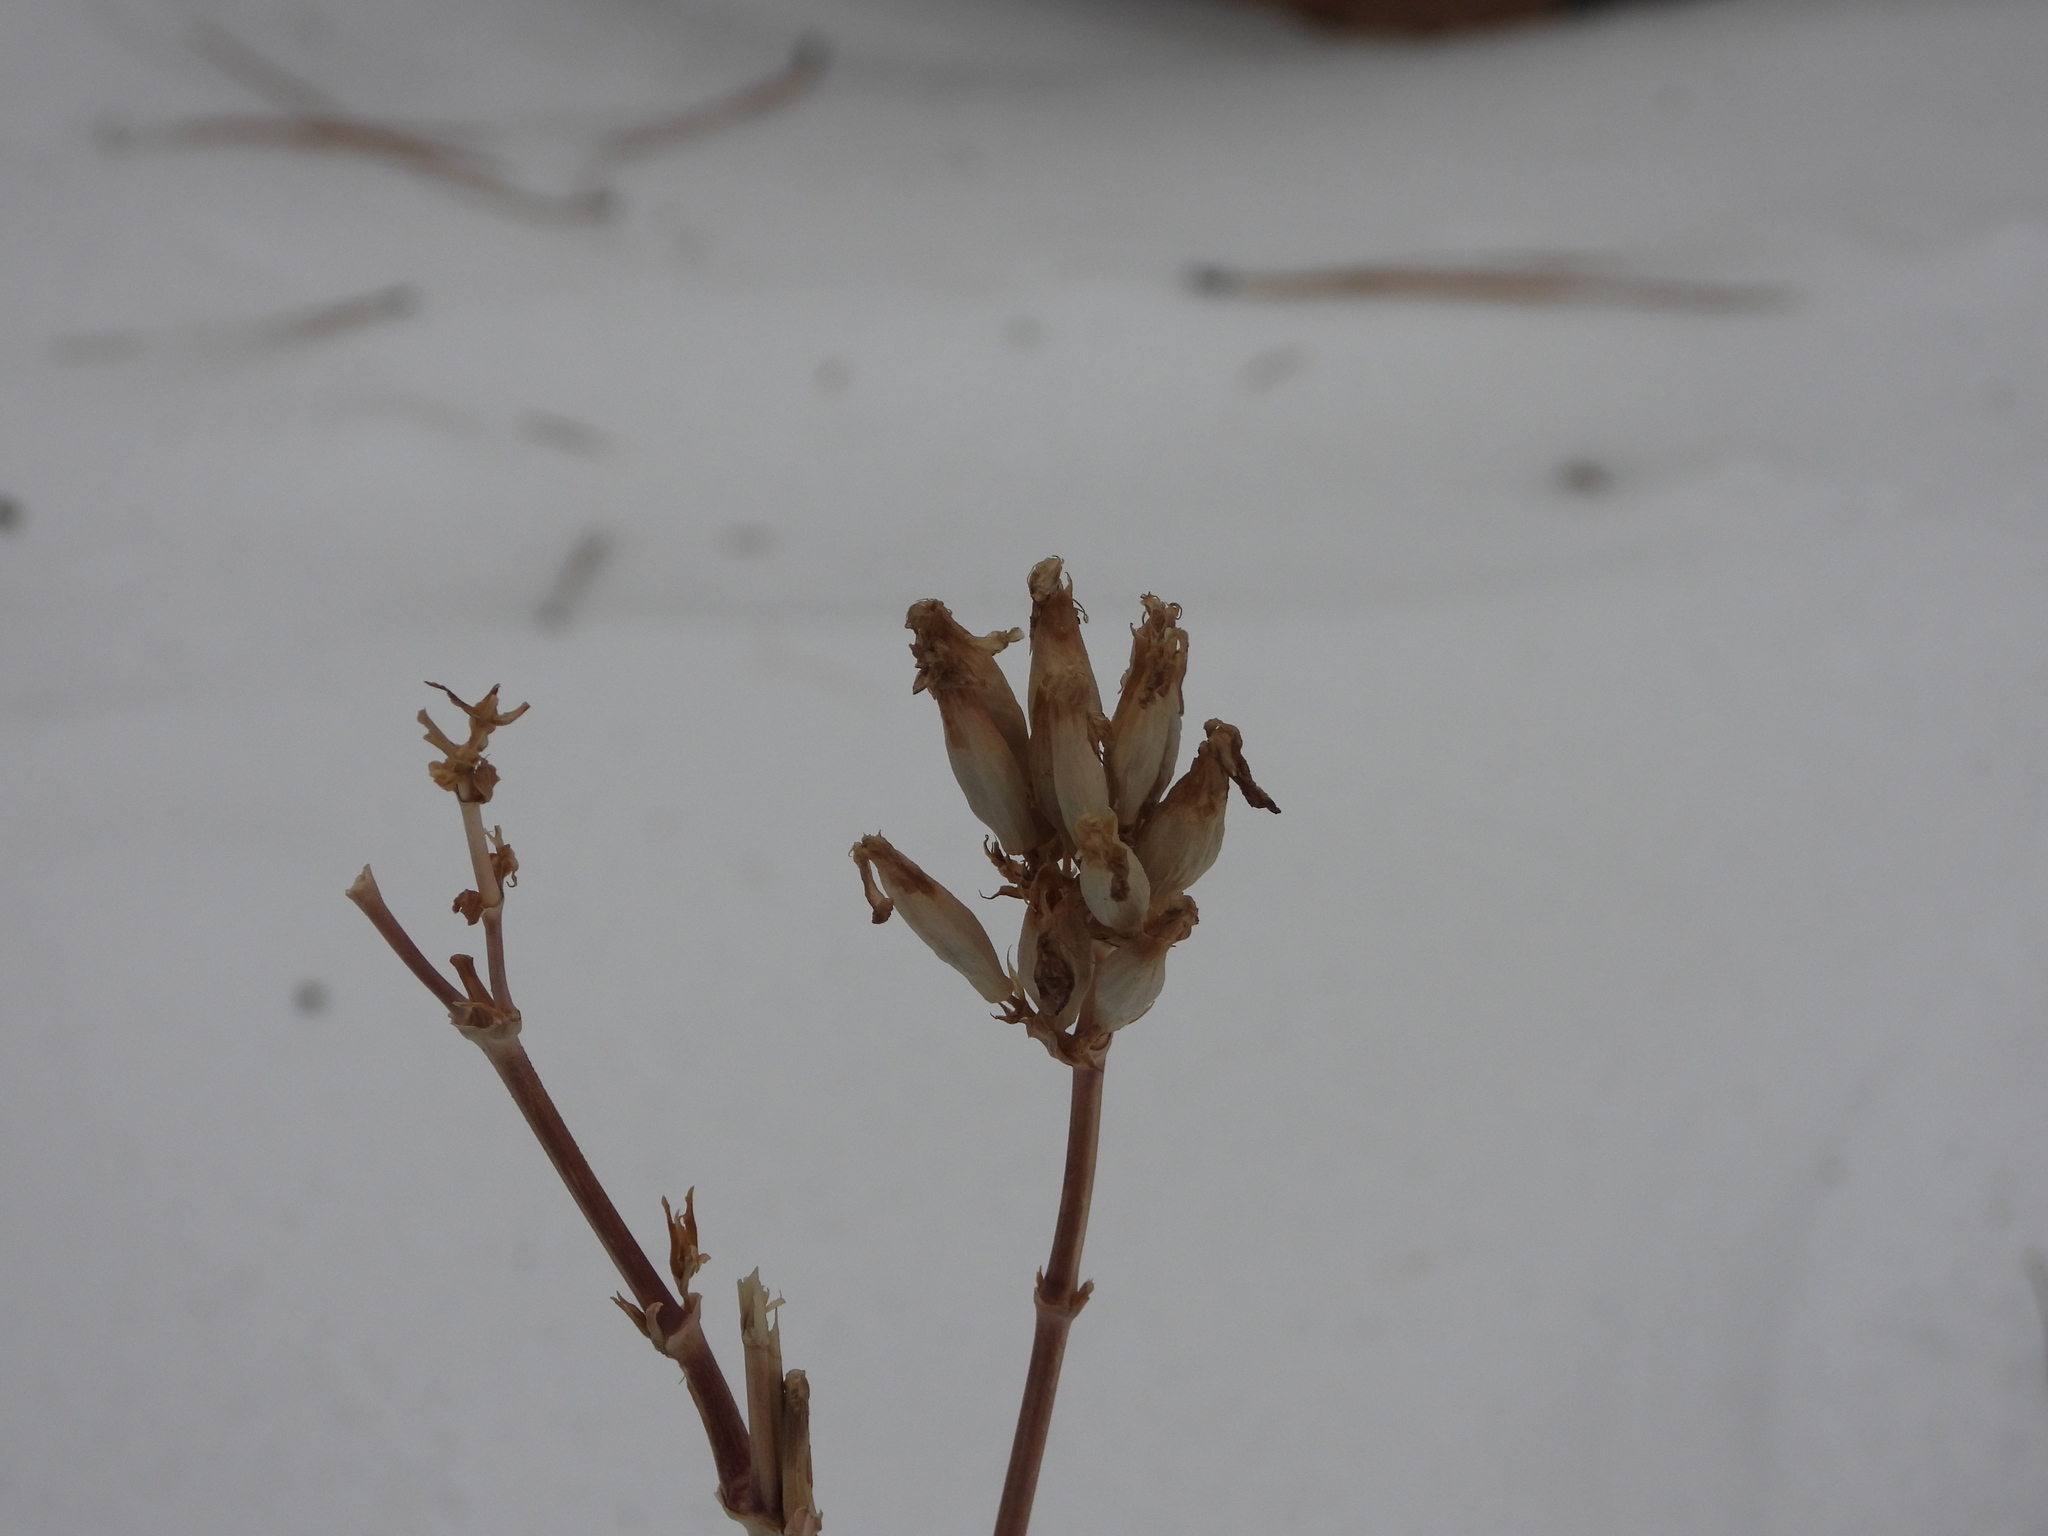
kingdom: Plantae
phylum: Tracheophyta
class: Magnoliopsida
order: Caryophyllales
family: Caryophyllaceae
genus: Saponaria
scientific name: Saponaria officinalis
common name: Soapwort
